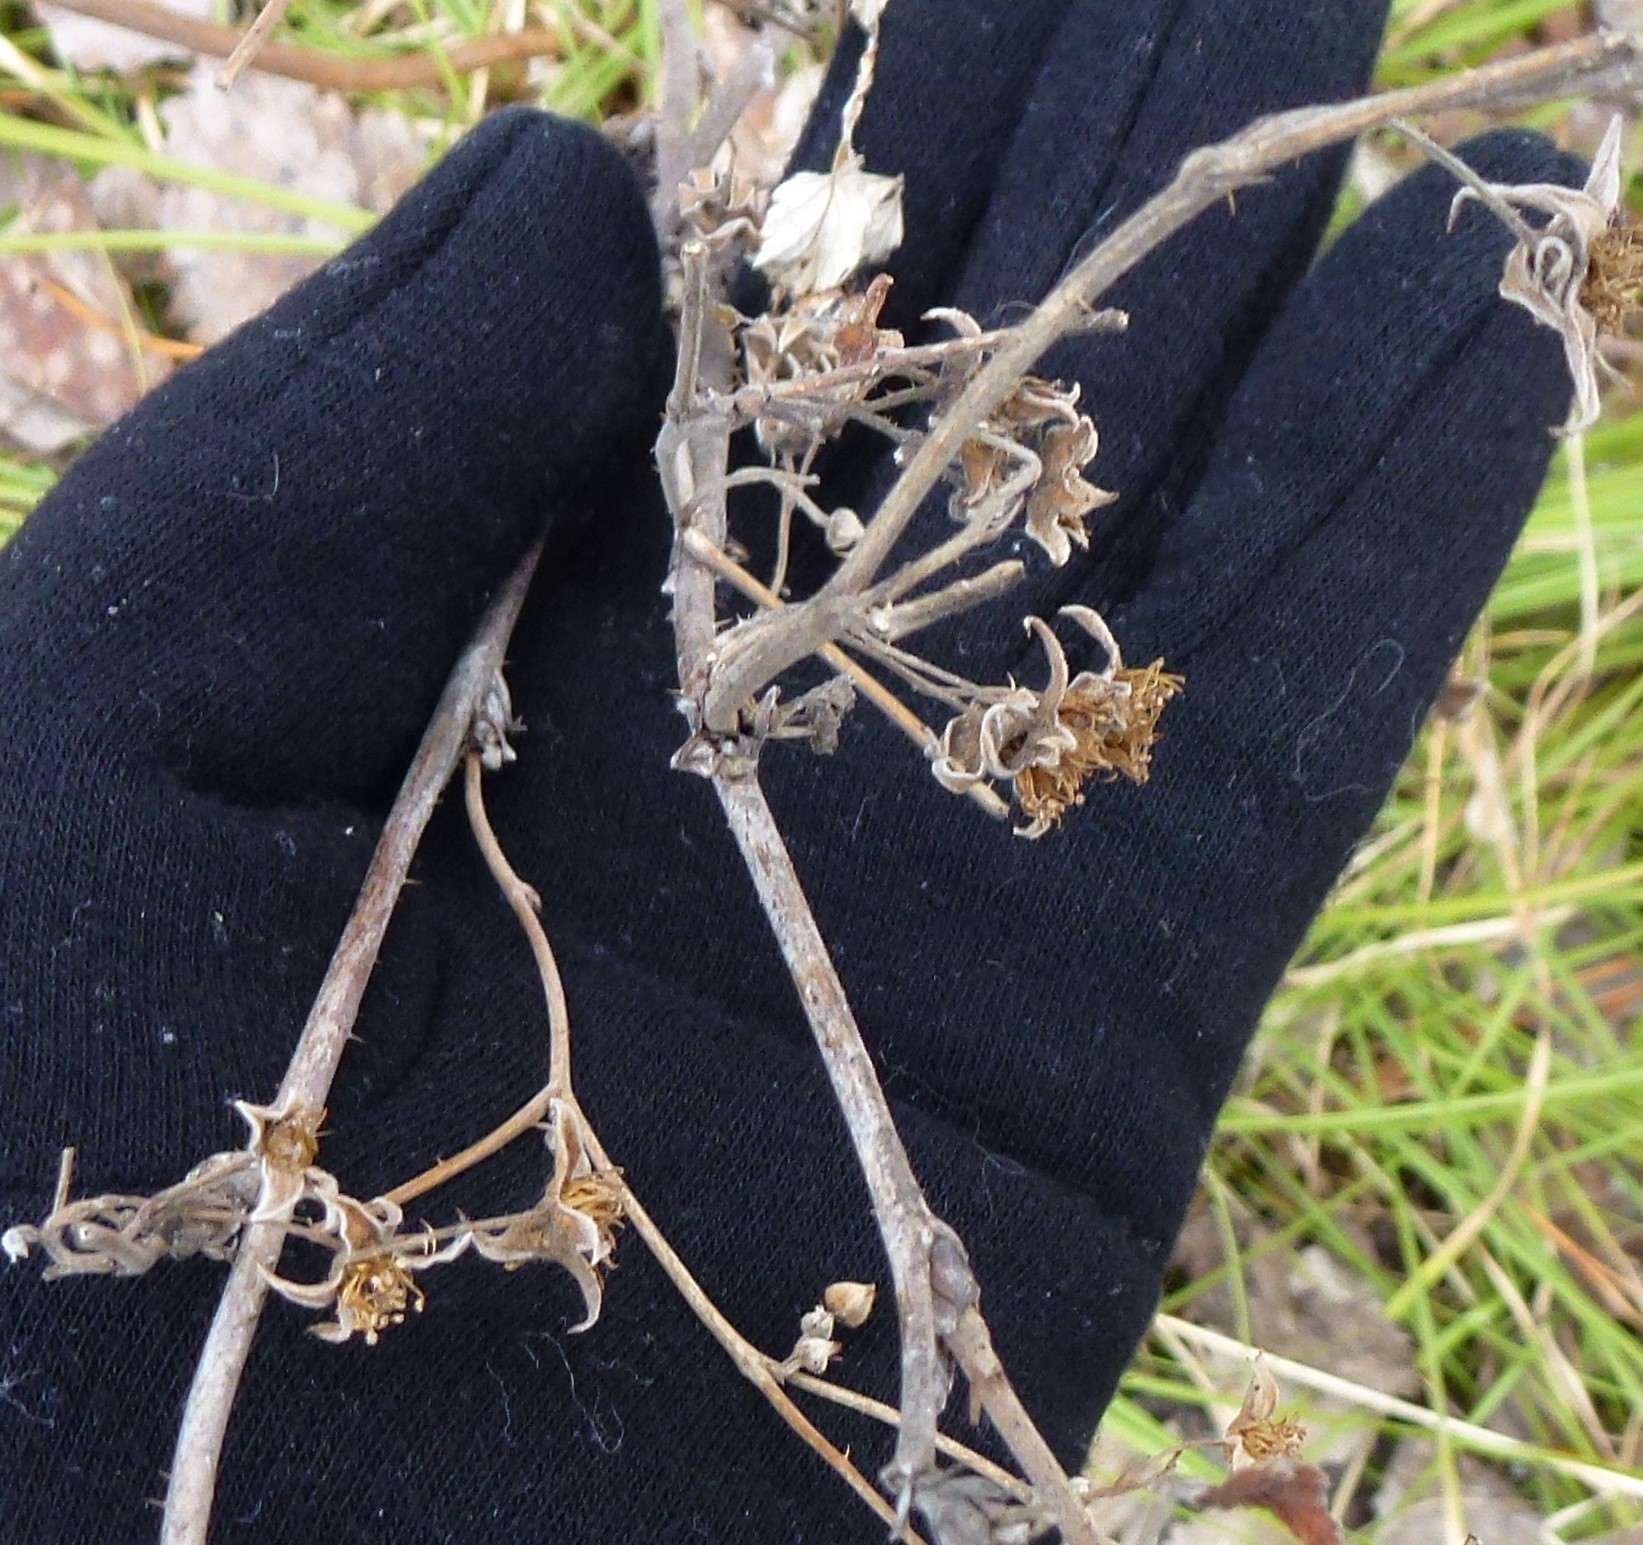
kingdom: Plantae
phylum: Tracheophyta
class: Magnoliopsida
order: Rosales
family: Rosaceae
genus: Rubus
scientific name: Rubus sachalinensis
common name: Red raspberry
